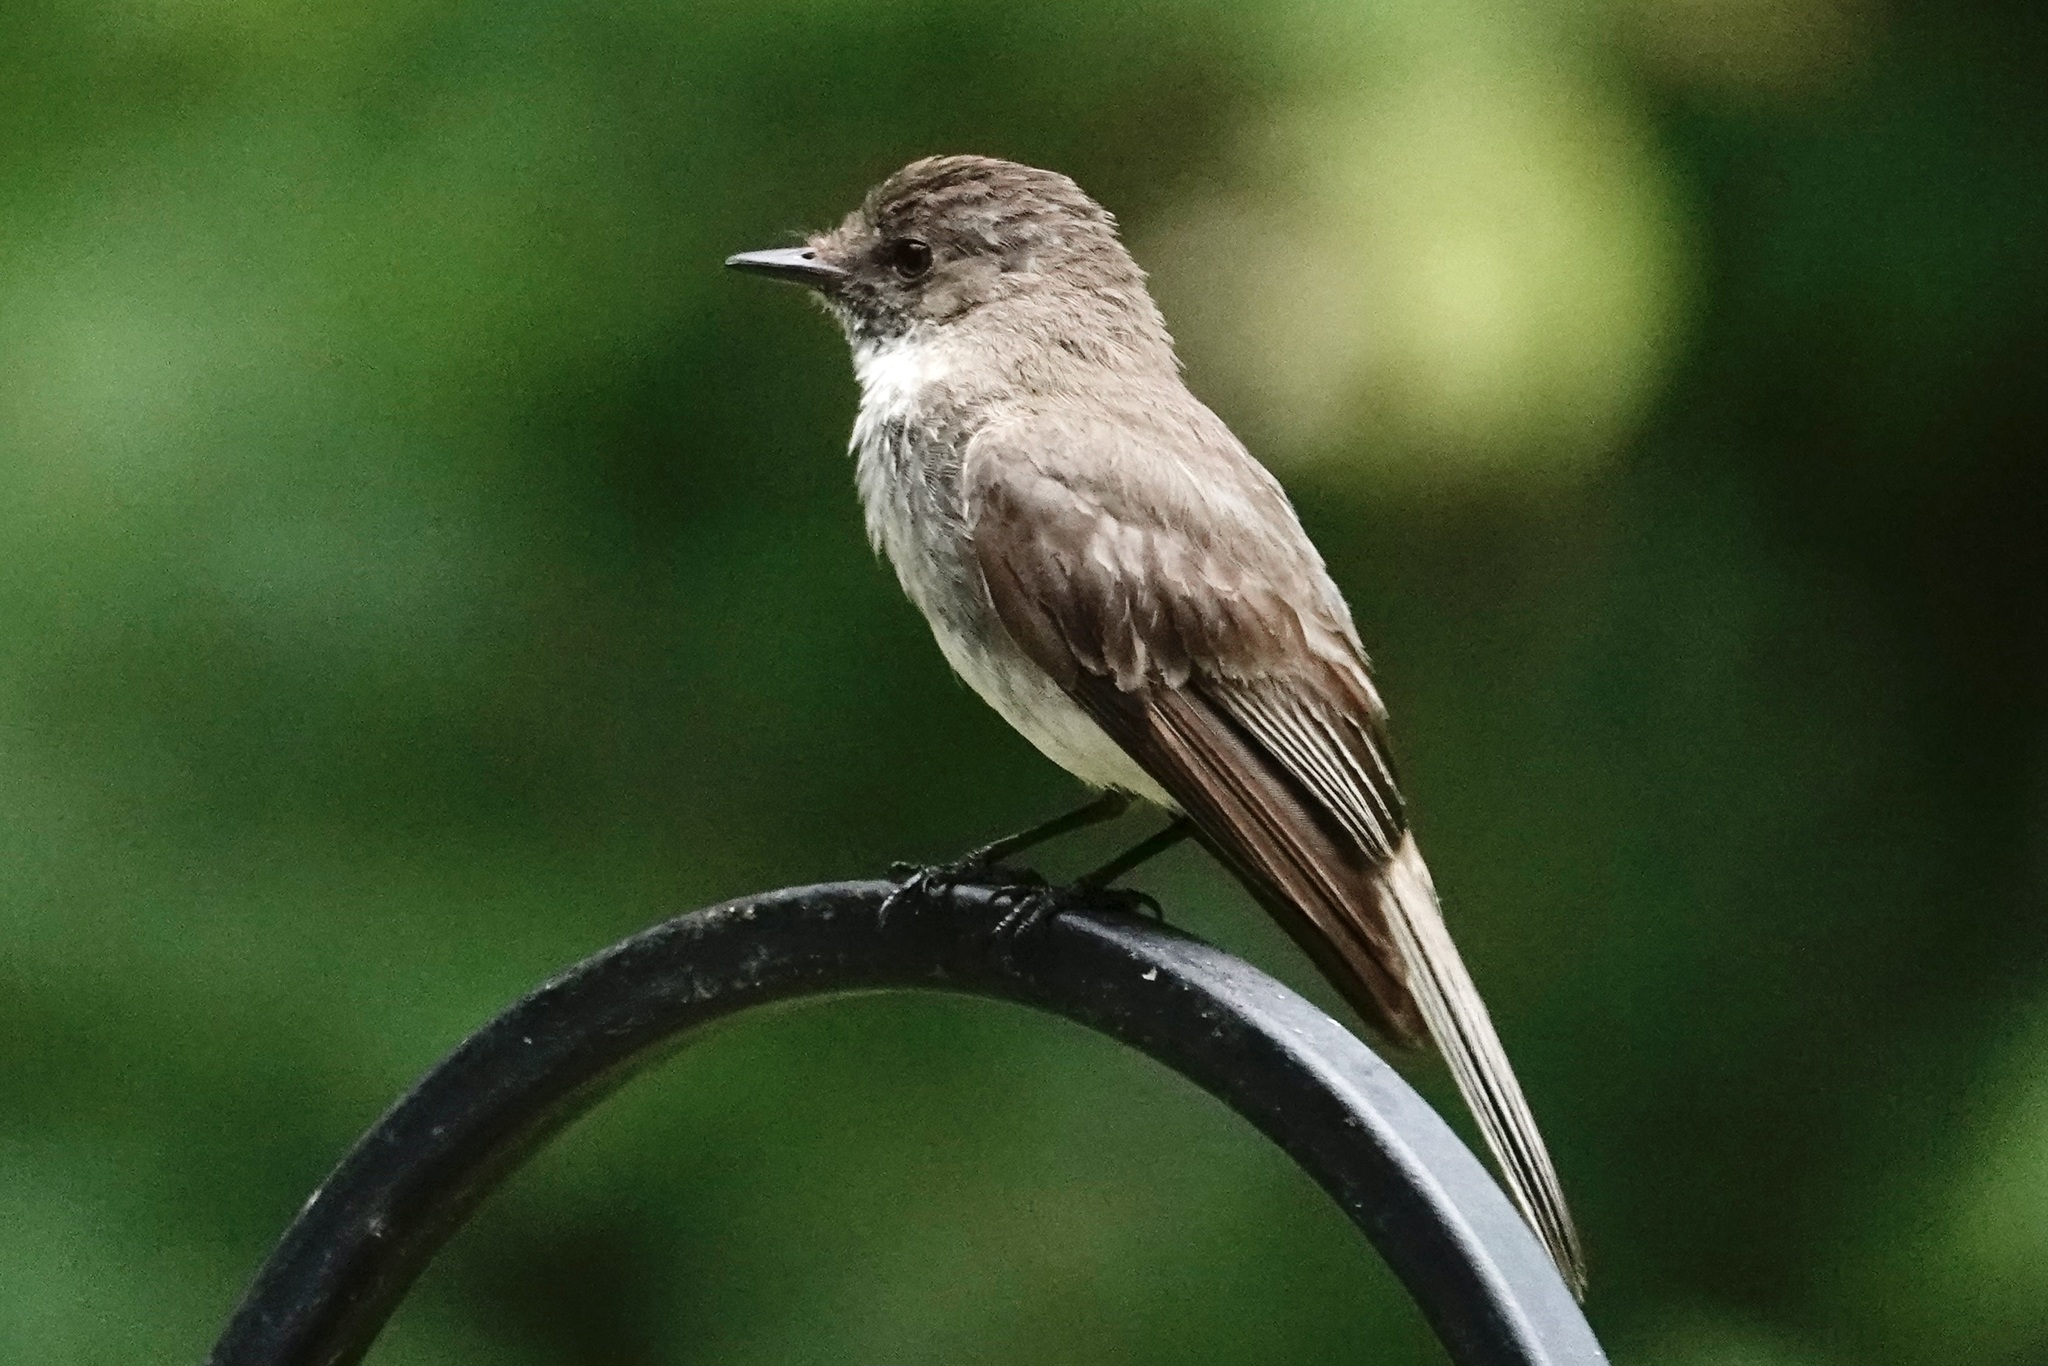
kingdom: Animalia
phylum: Chordata
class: Aves
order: Passeriformes
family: Tyrannidae
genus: Sayornis
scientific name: Sayornis phoebe
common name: Eastern phoebe
